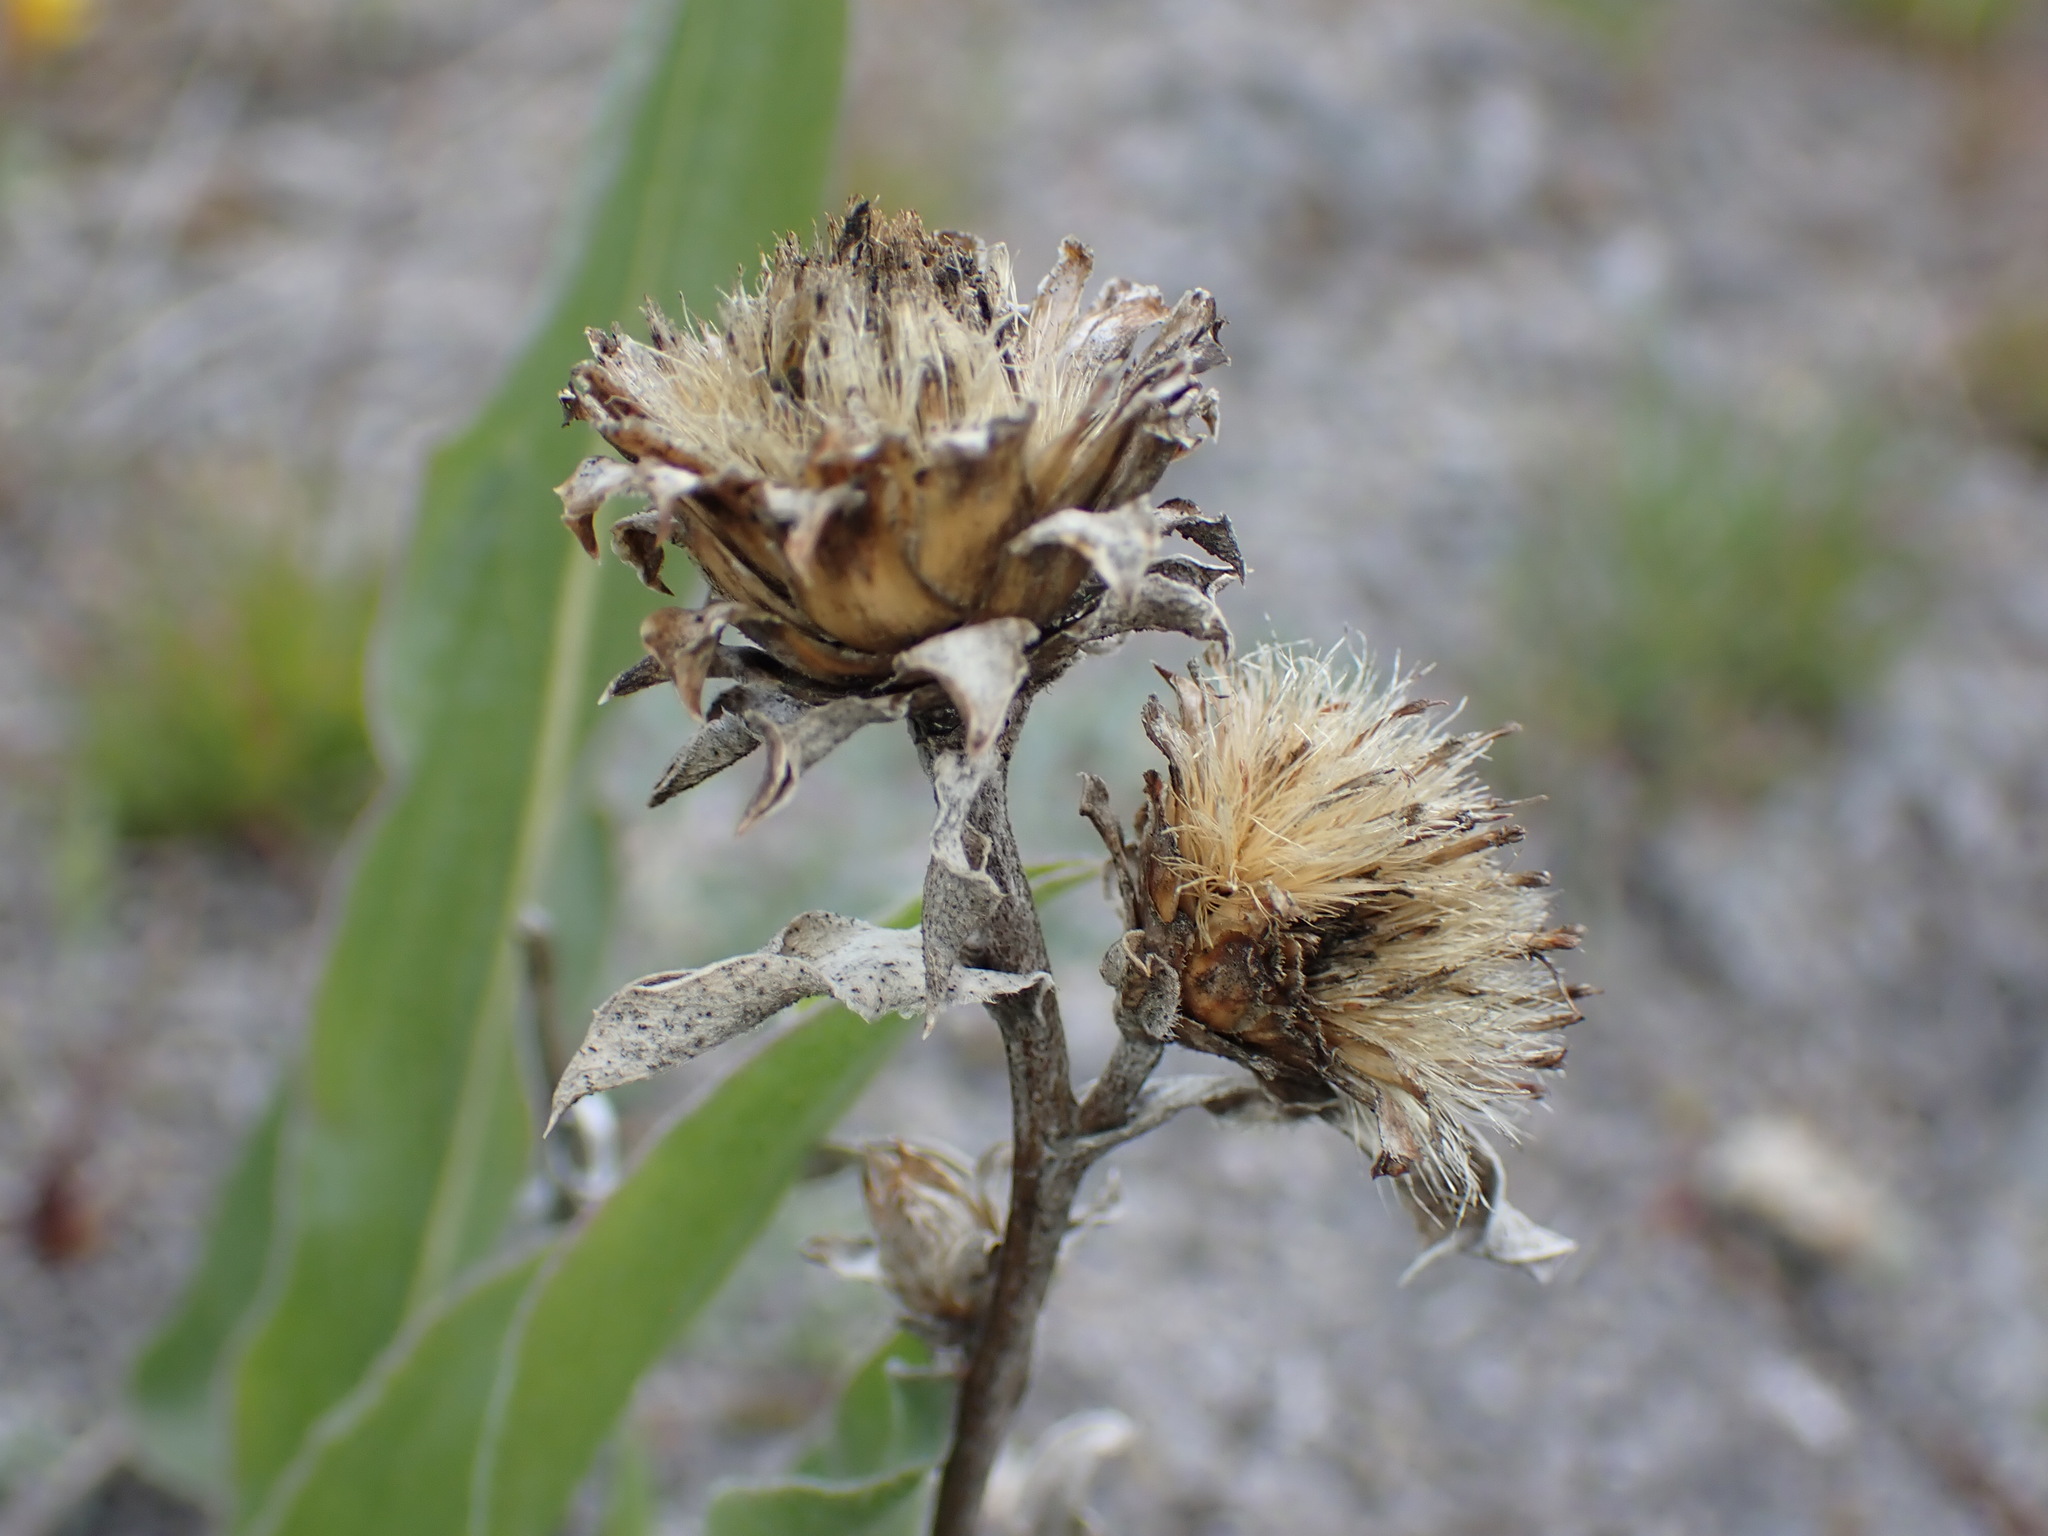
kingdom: Plantae
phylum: Tracheophyta
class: Magnoliopsida
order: Asterales
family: Asteraceae
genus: Pyrrocoma
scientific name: Pyrrocoma carthamoides
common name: Large-flower goldenweed
